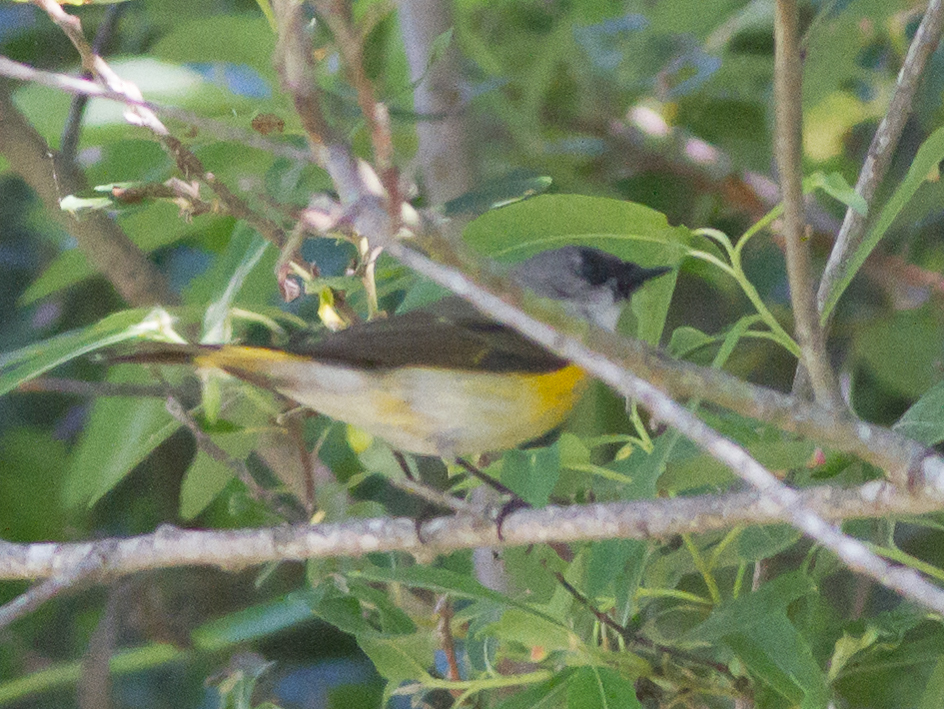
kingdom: Animalia
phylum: Chordata
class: Aves
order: Passeriformes
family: Parulidae
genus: Setophaga
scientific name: Setophaga ruticilla
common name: American redstart
